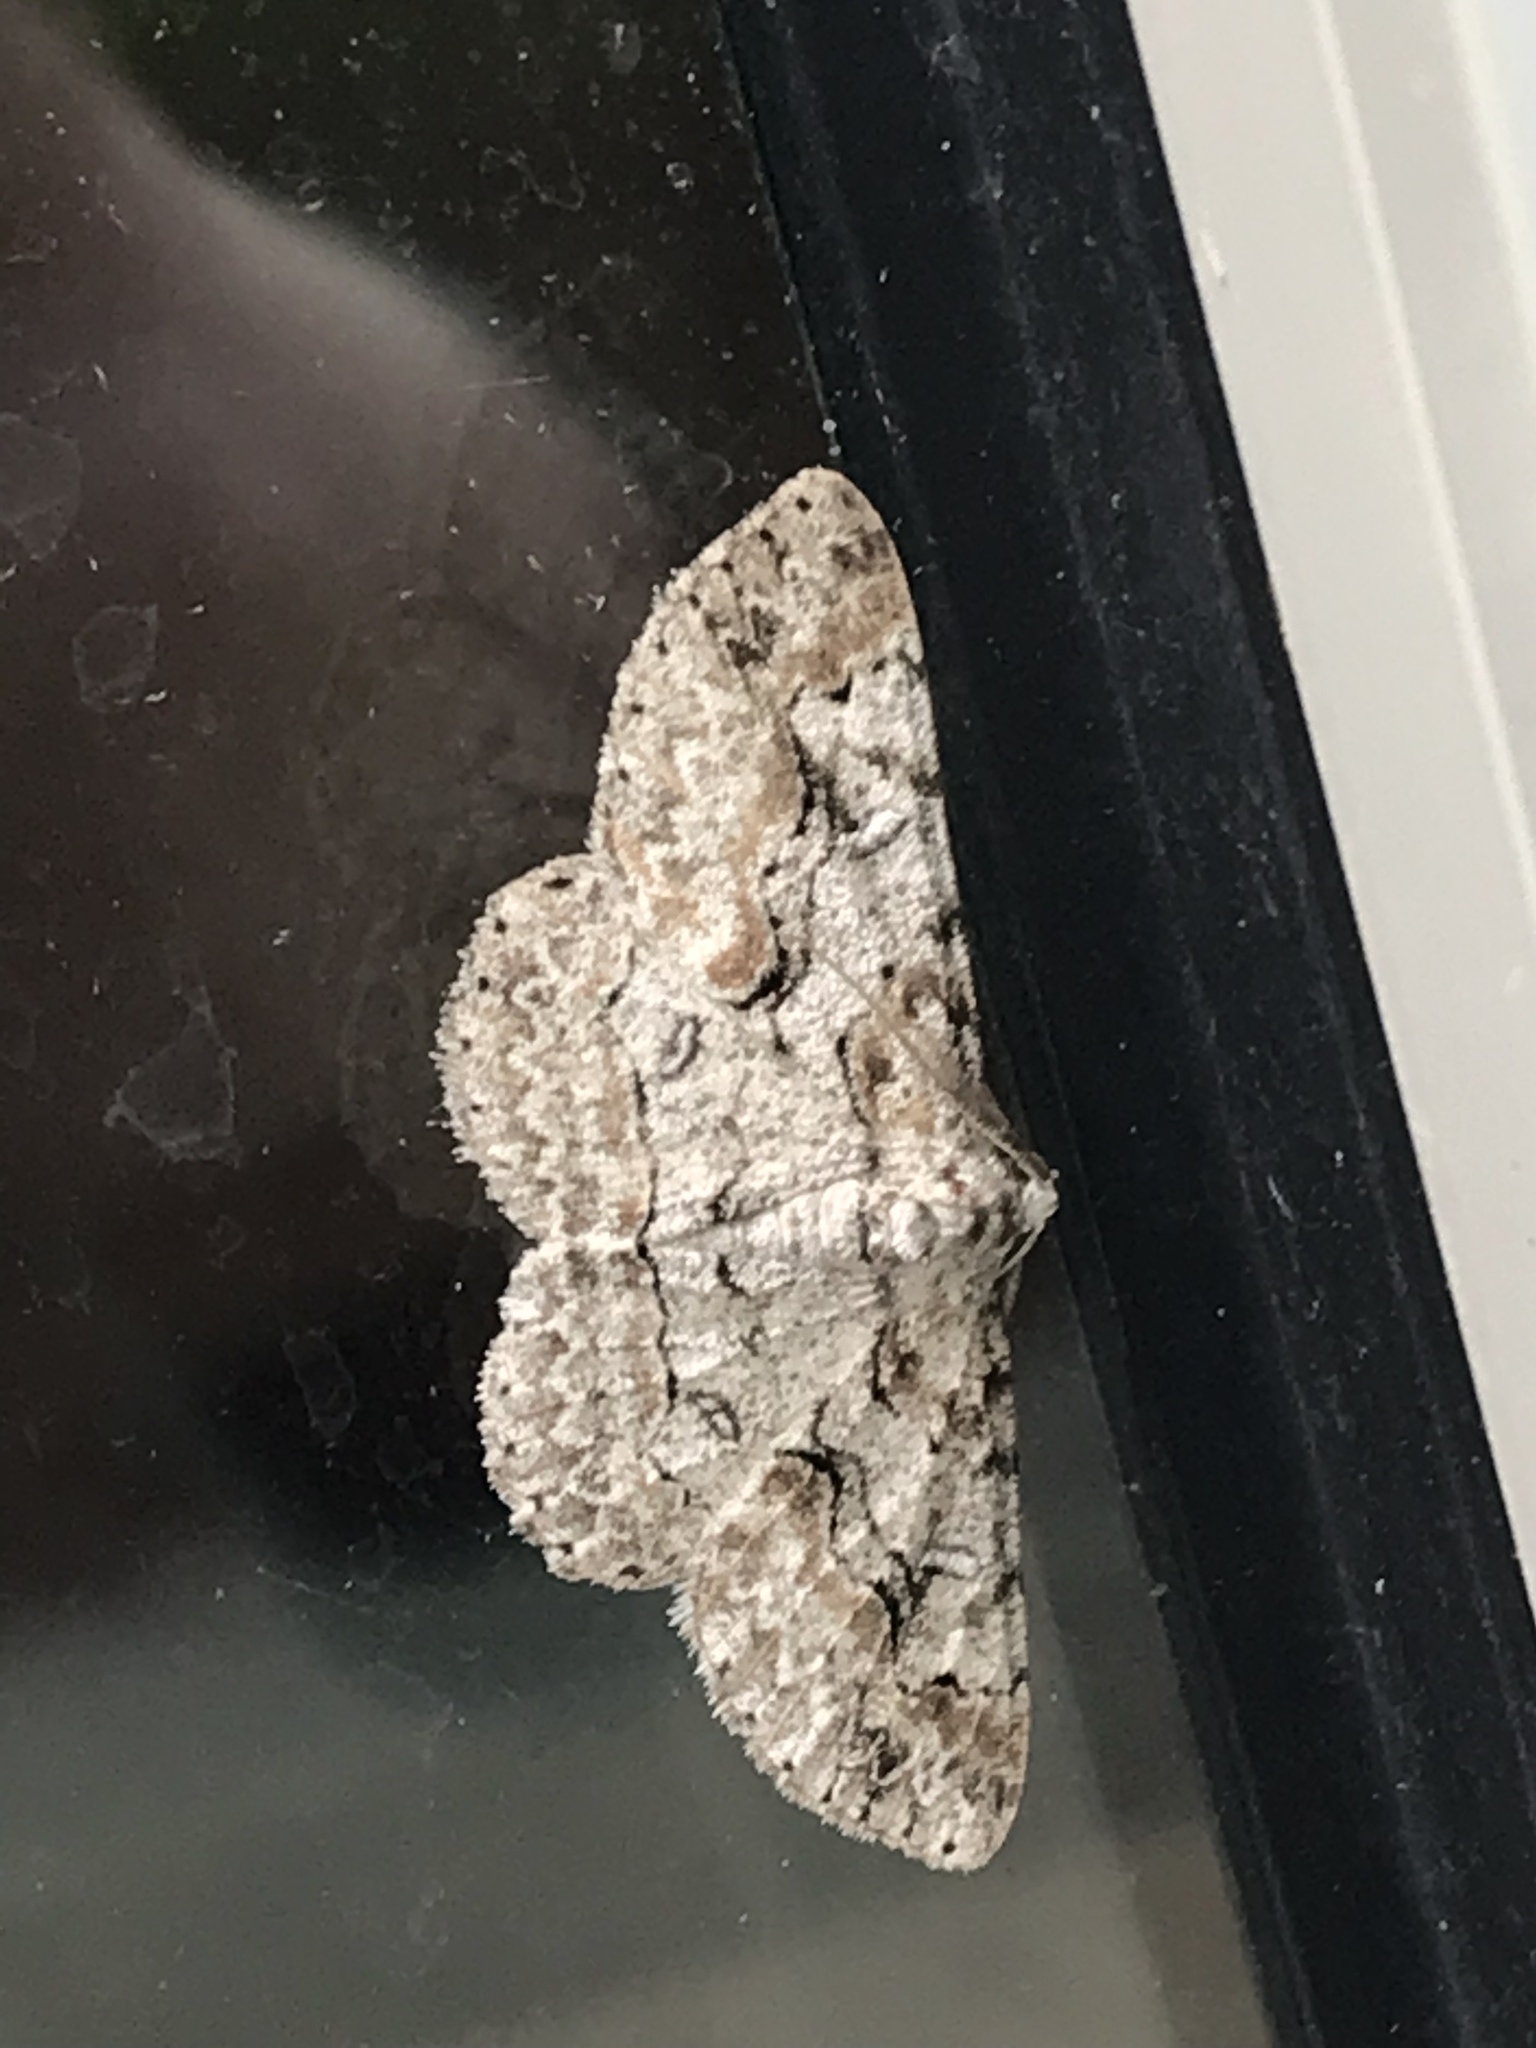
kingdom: Animalia
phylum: Arthropoda
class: Insecta
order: Lepidoptera
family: Geometridae
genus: Iridopsis
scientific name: Iridopsis defectaria
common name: Brown-shaded gray
